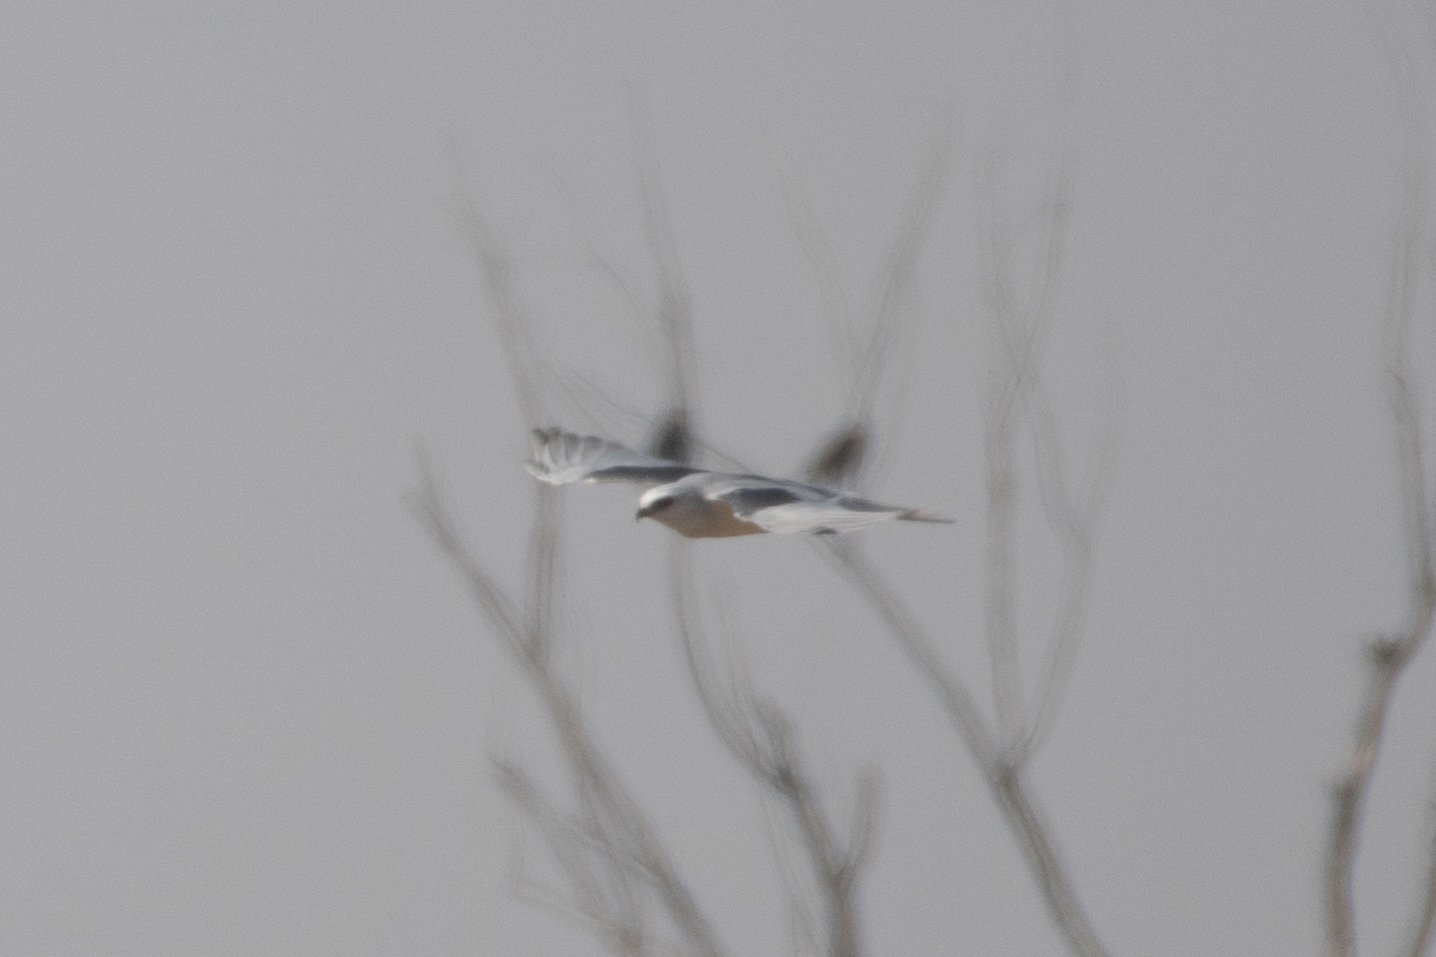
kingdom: Animalia
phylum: Chordata
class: Aves
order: Accipitriformes
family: Accipitridae
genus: Elanus
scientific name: Elanus leucurus
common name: White-tailed kite
